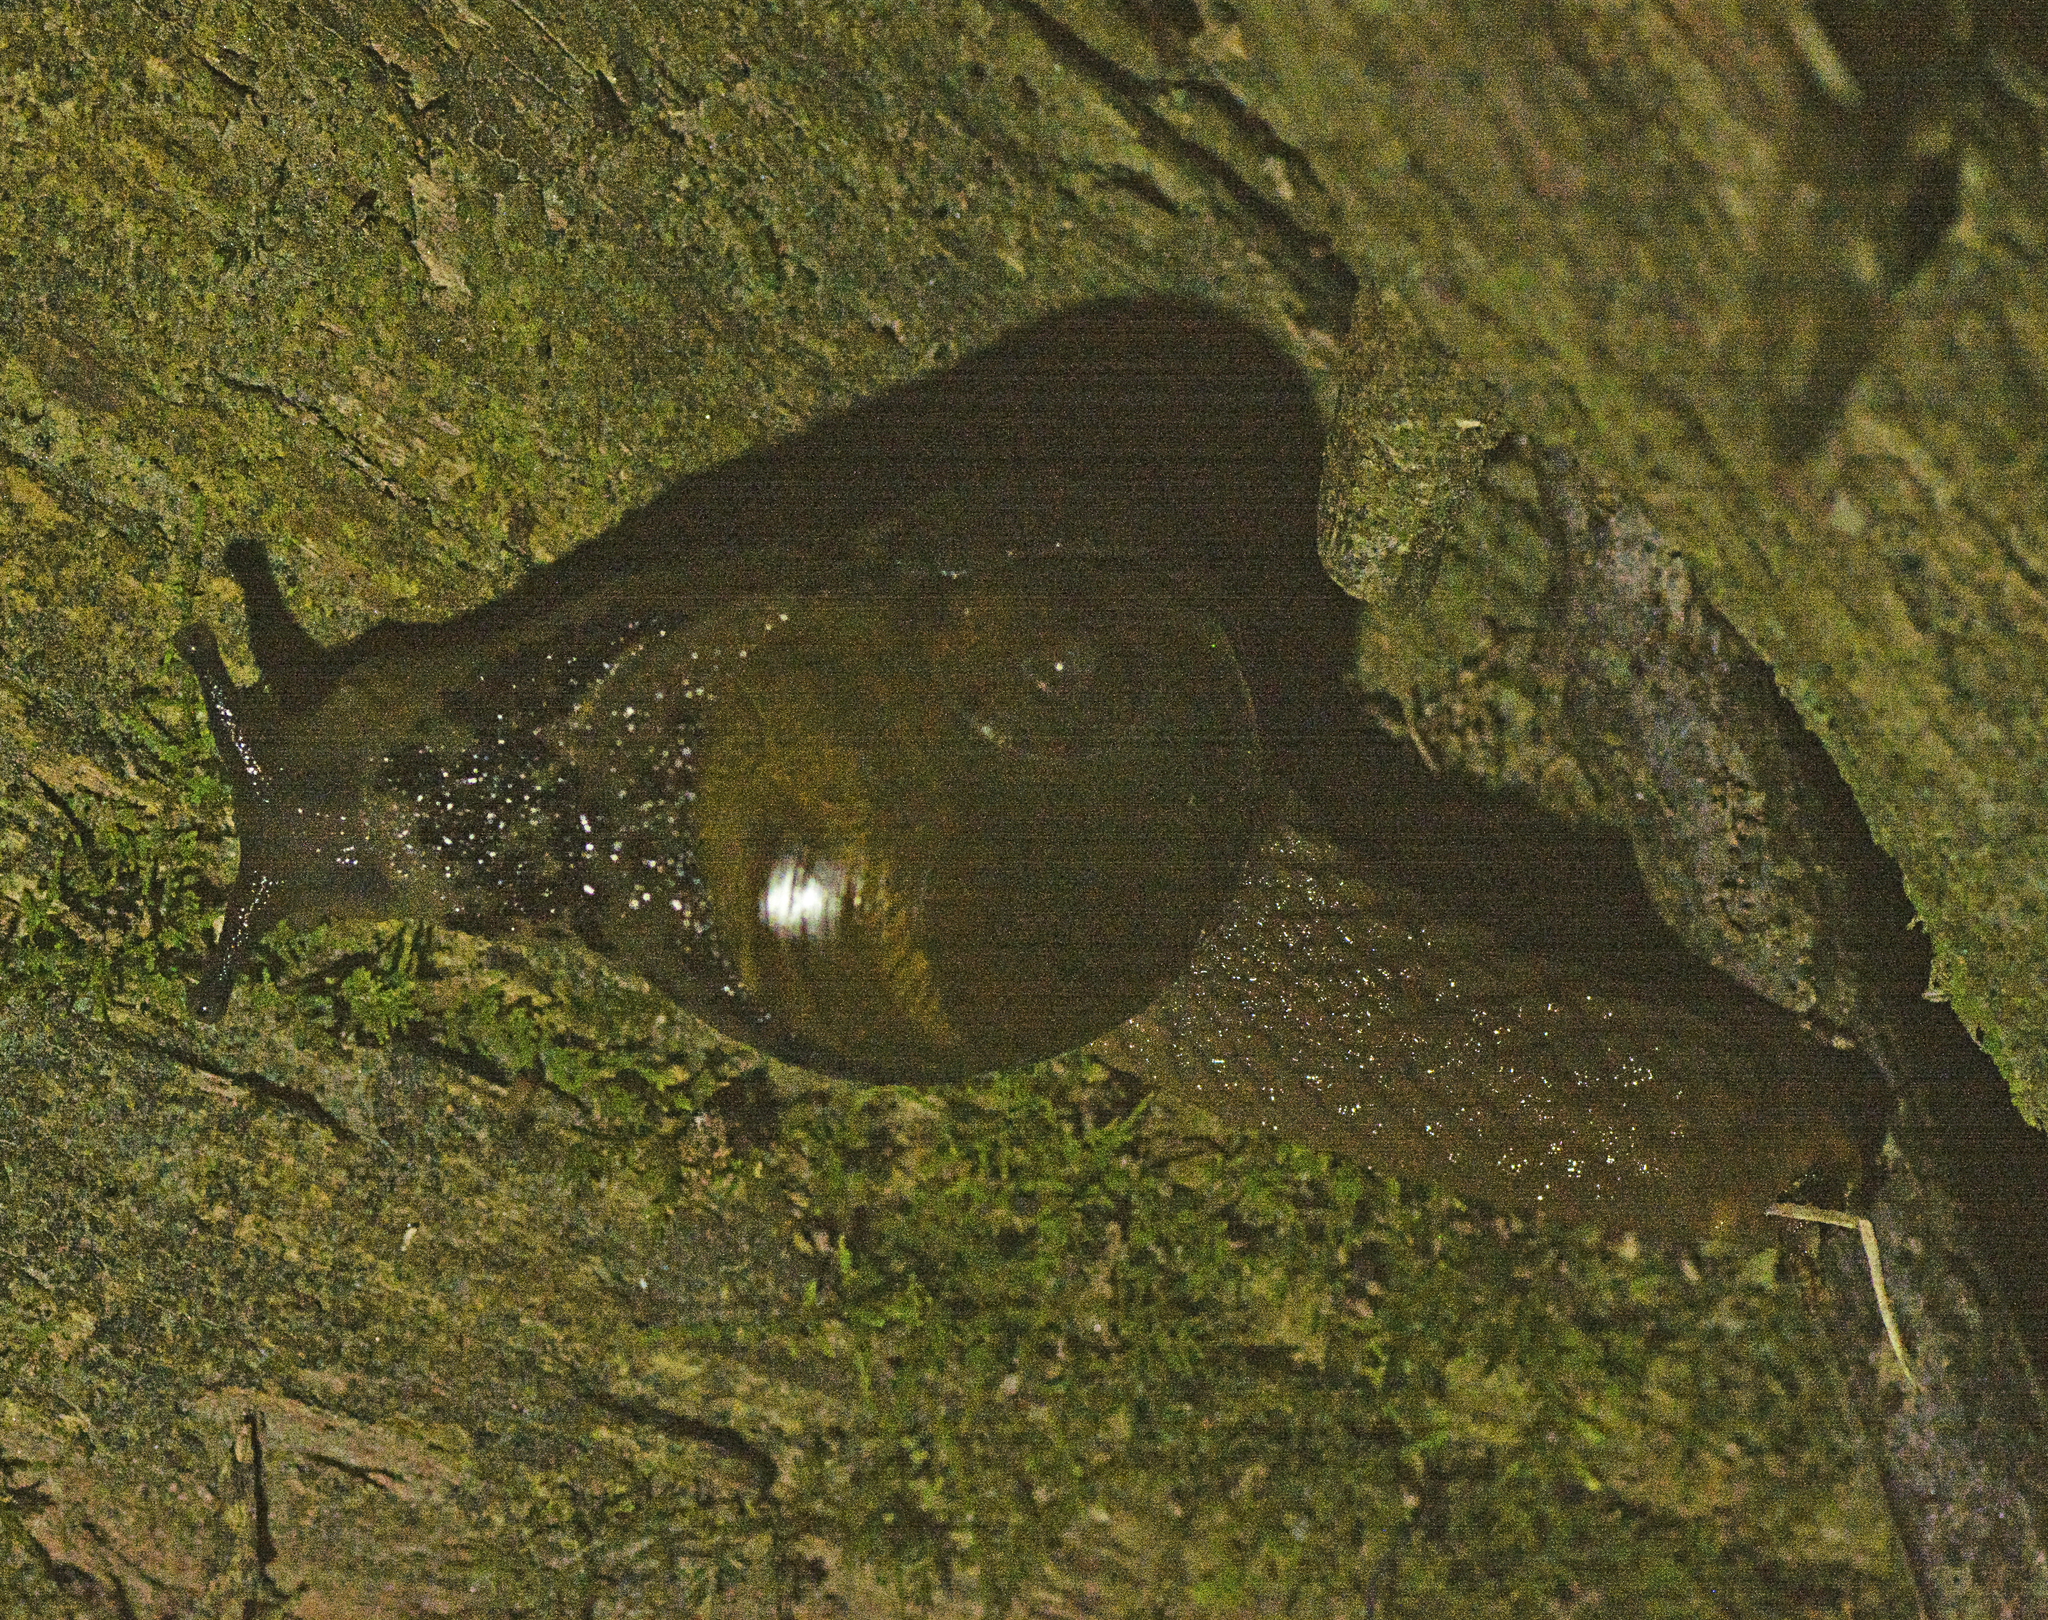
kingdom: Animalia
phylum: Mollusca
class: Gastropoda
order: Stylommatophora
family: Helicarionidae
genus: Stanisicarion
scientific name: Stanisicarion aquila
